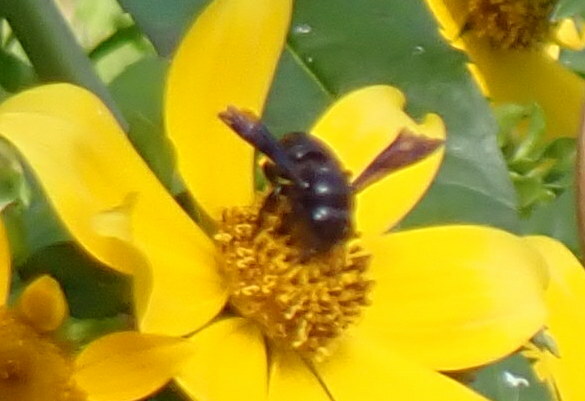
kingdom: Animalia
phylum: Arthropoda
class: Insecta
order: Hymenoptera
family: Megachilidae
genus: Megachile
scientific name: Megachile xylocopoides
